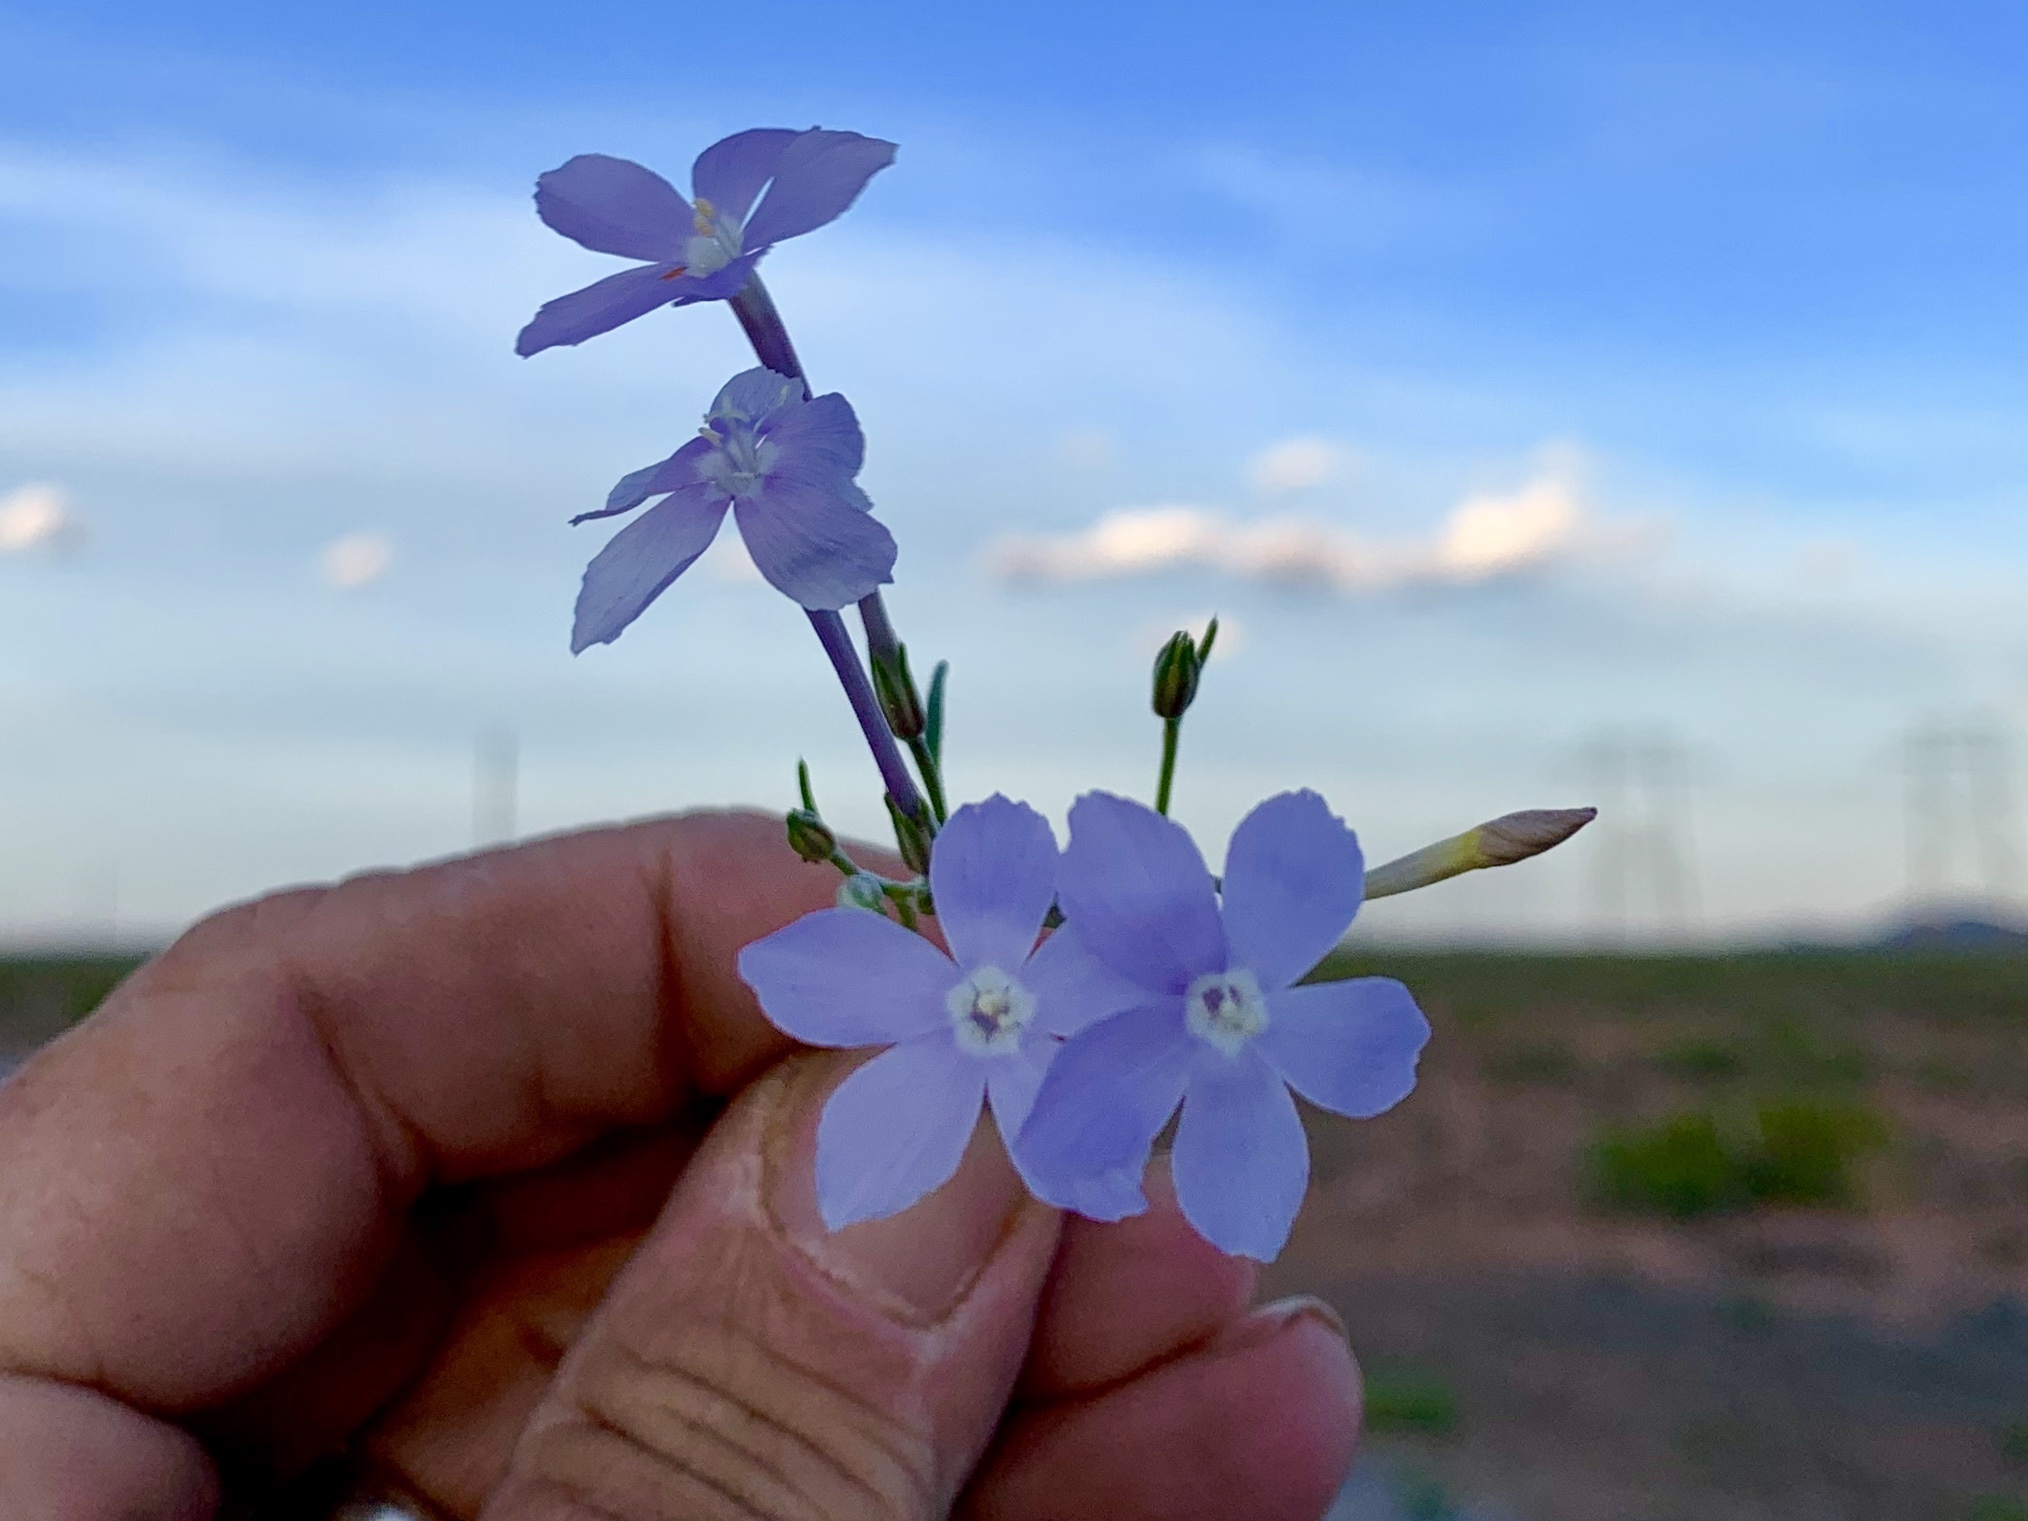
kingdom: Plantae
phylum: Tracheophyta
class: Magnoliopsida
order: Ericales
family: Polemoniaceae
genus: Ipomopsis
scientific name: Ipomopsis longiflora
